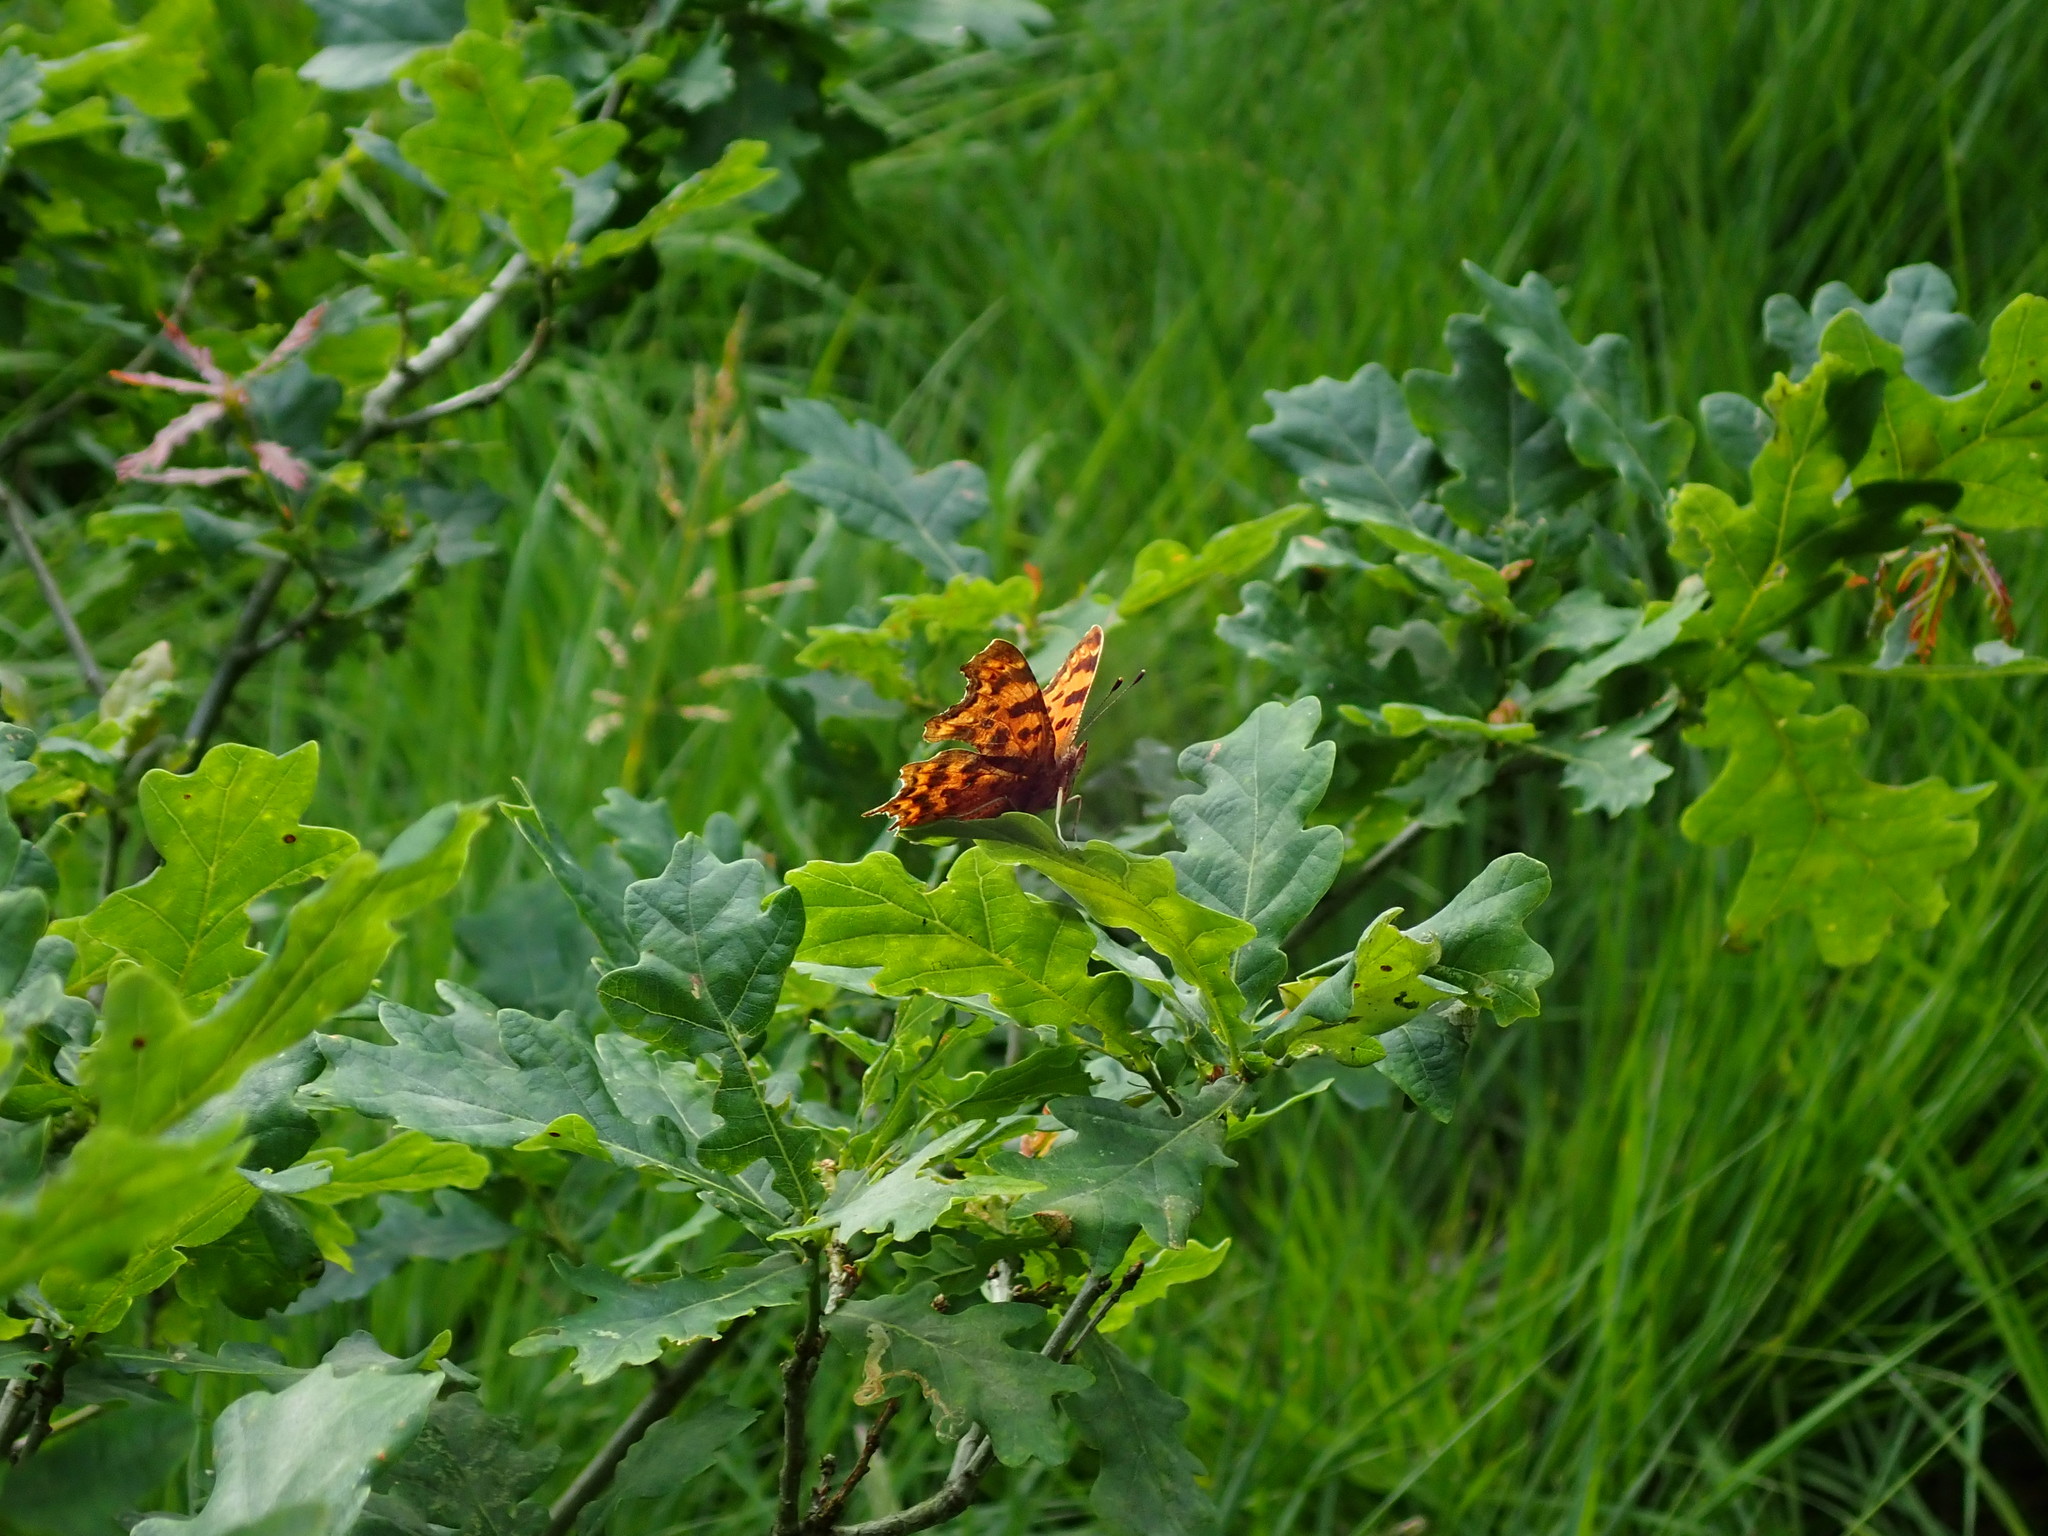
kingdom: Animalia
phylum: Arthropoda
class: Insecta
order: Lepidoptera
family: Nymphalidae
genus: Polygonia
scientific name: Polygonia c-album
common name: Comma
